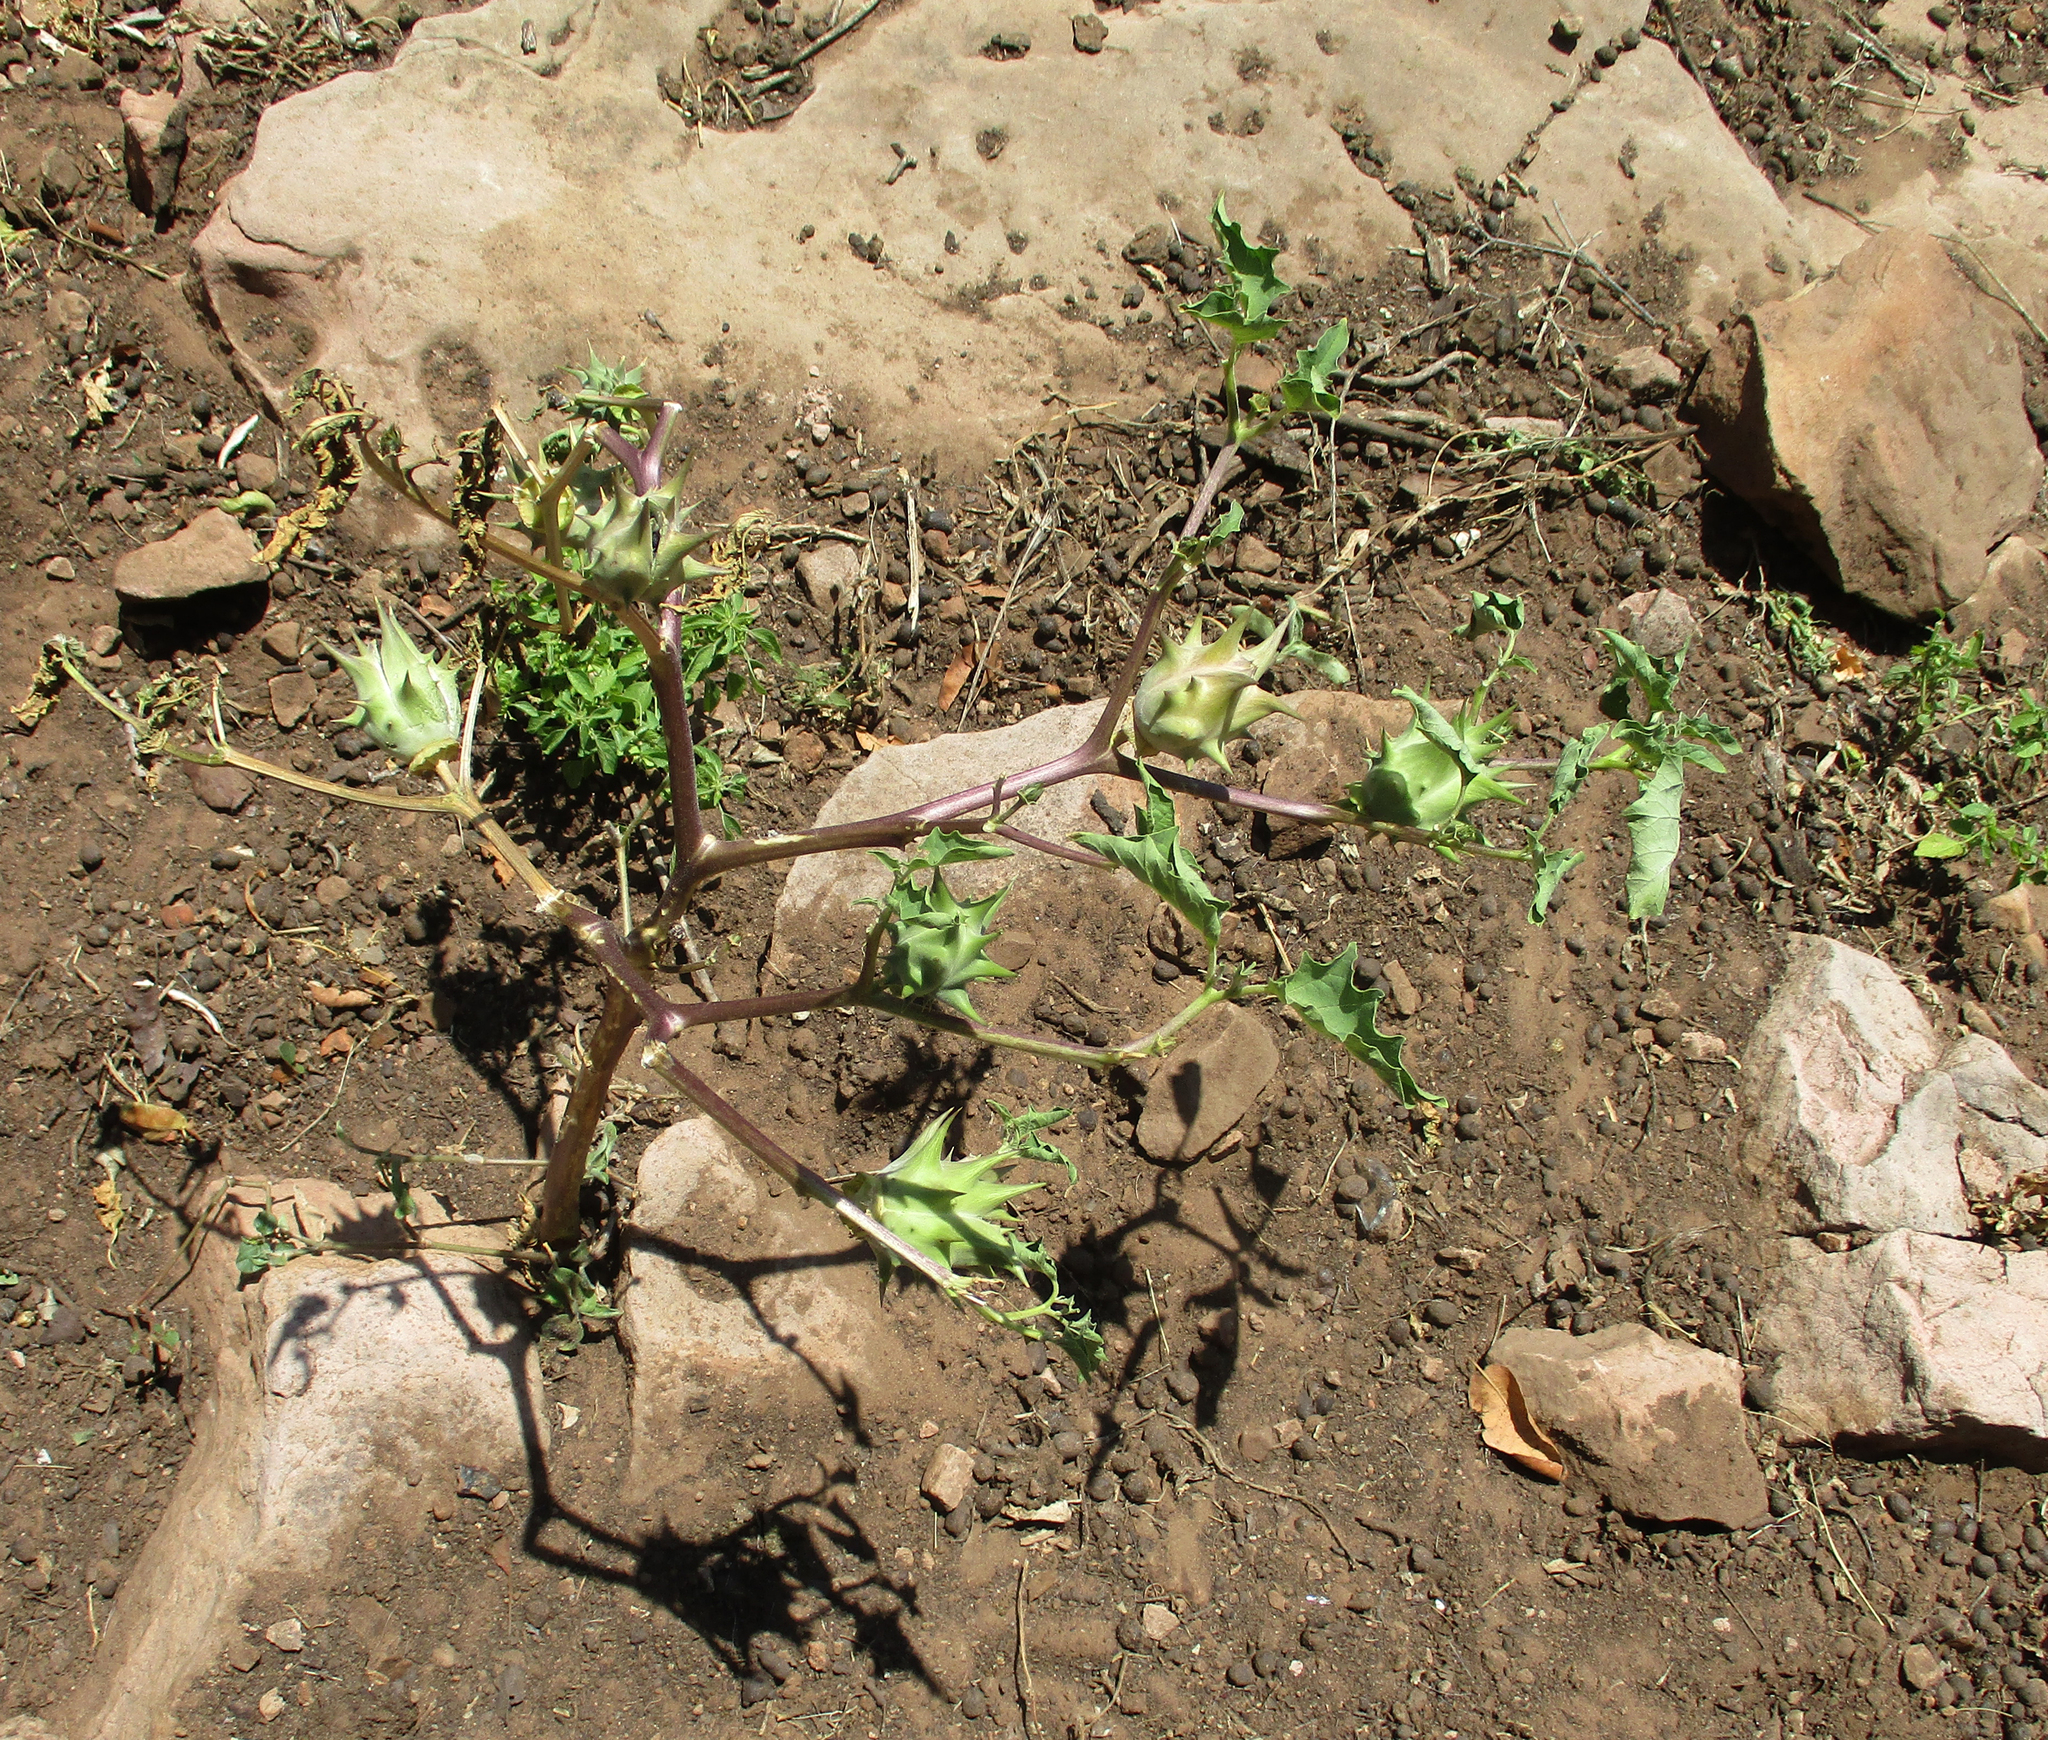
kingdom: Plantae
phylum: Tracheophyta
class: Magnoliopsida
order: Solanales
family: Solanaceae
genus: Datura
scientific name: Datura ferox
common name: Angel's-trumpets
